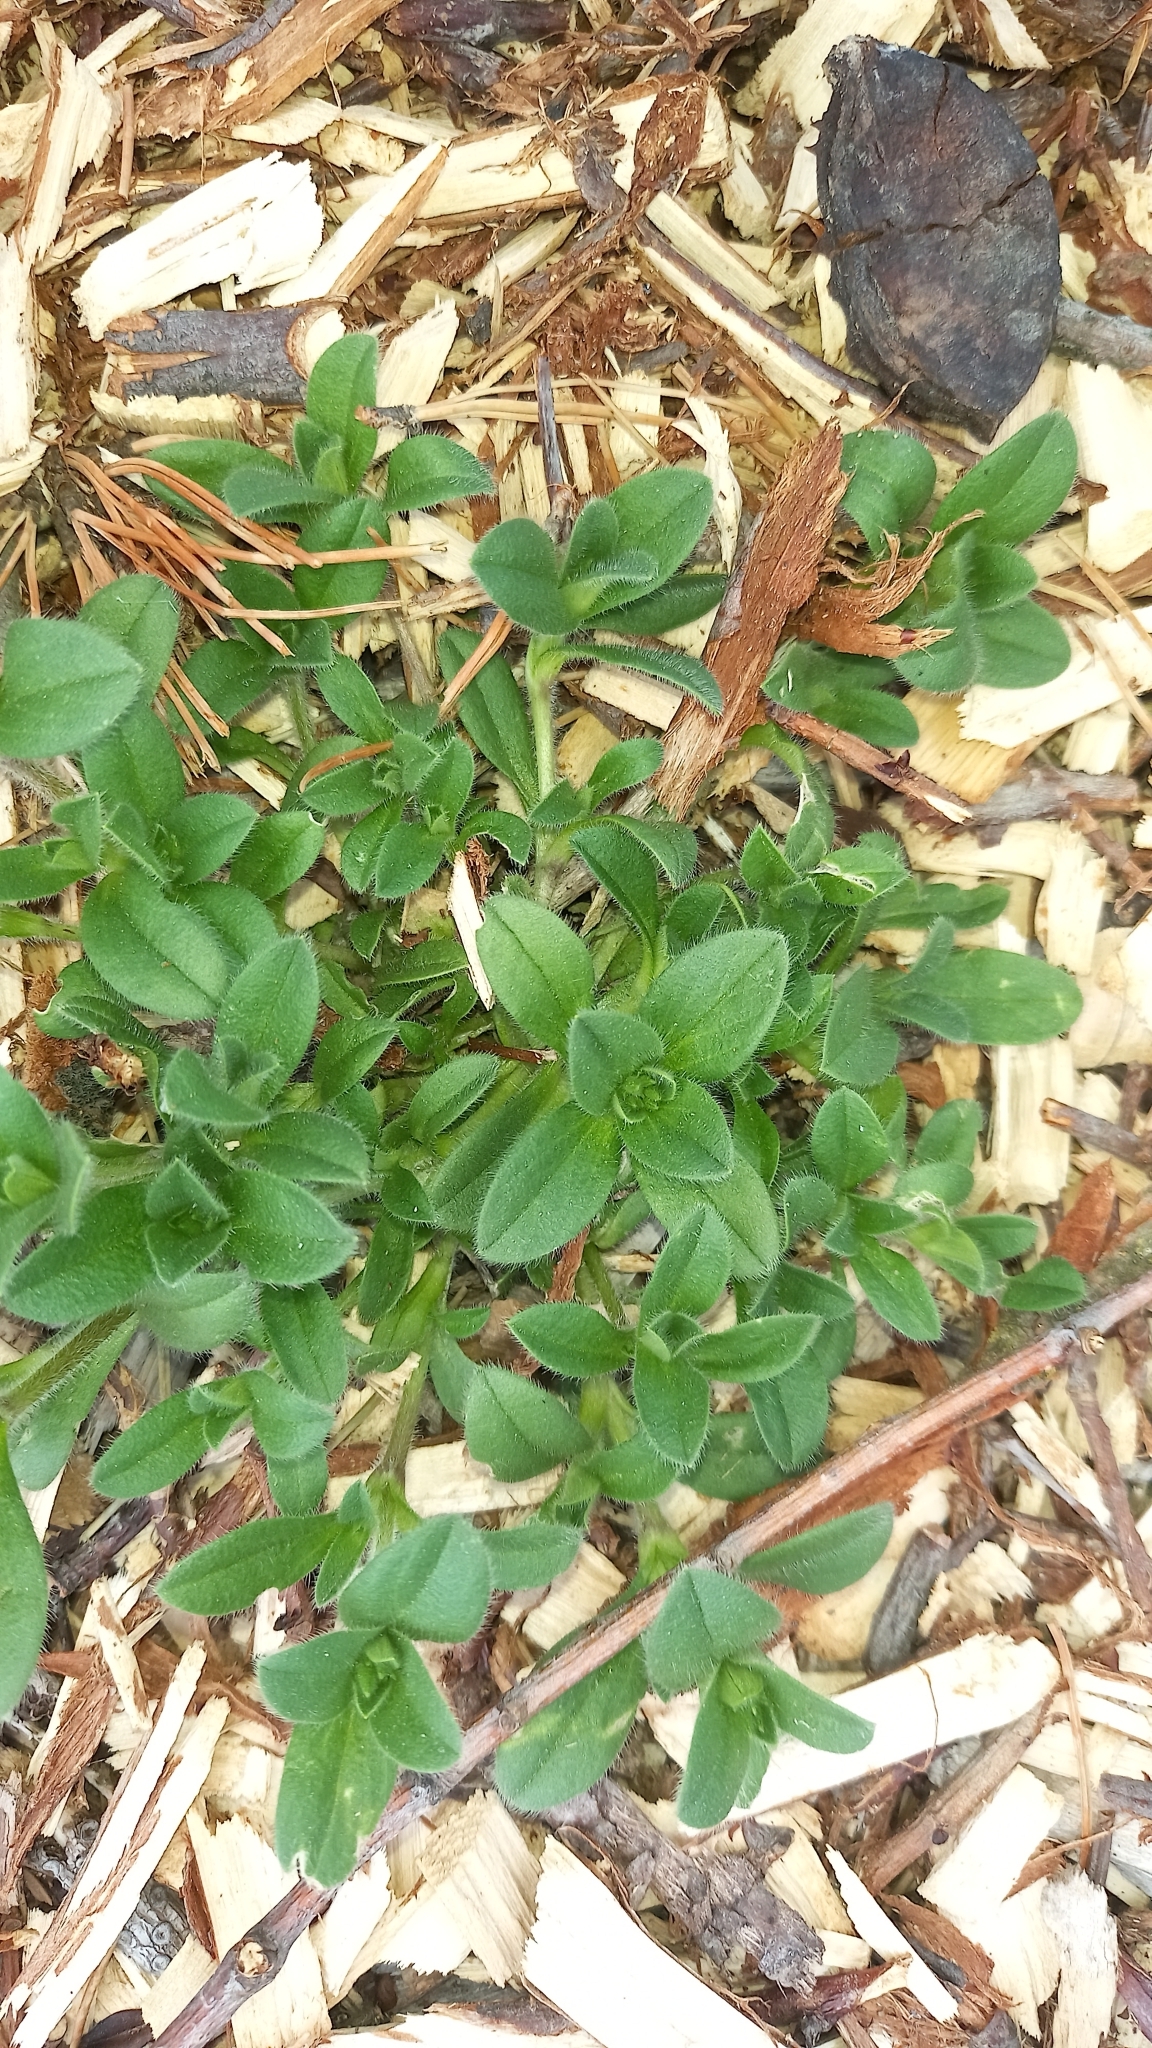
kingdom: Plantae
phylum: Tracheophyta
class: Magnoliopsida
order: Caryophyllales
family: Caryophyllaceae
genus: Cerastium
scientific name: Cerastium fontanum
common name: Common mouse-ear
